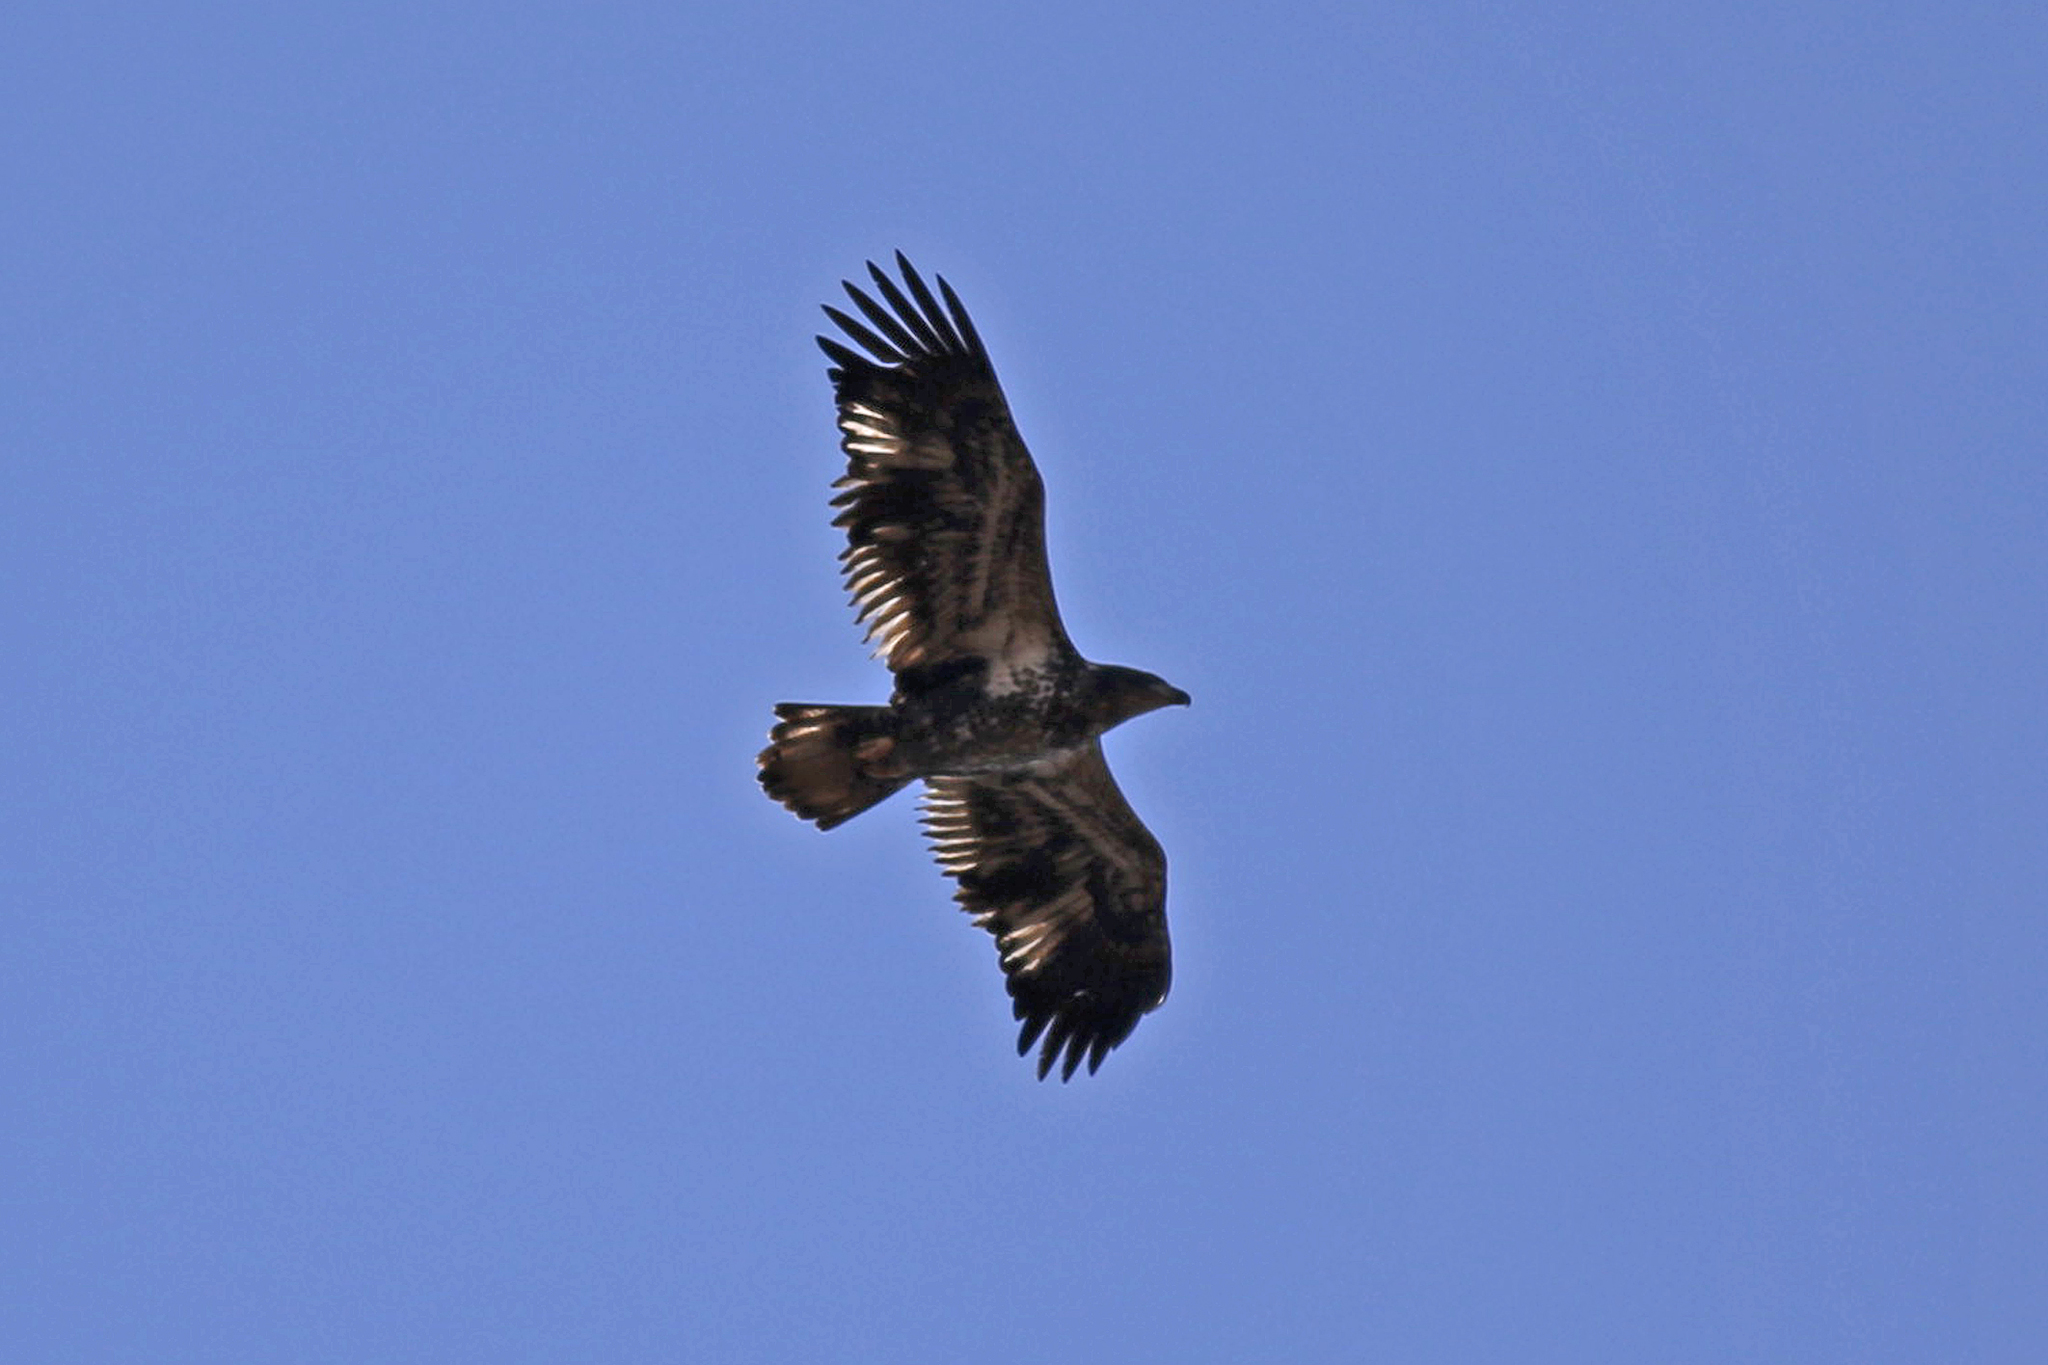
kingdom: Animalia
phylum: Chordata
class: Aves
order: Accipitriformes
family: Accipitridae
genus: Haliaeetus
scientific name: Haliaeetus leucocephalus
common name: Bald eagle
